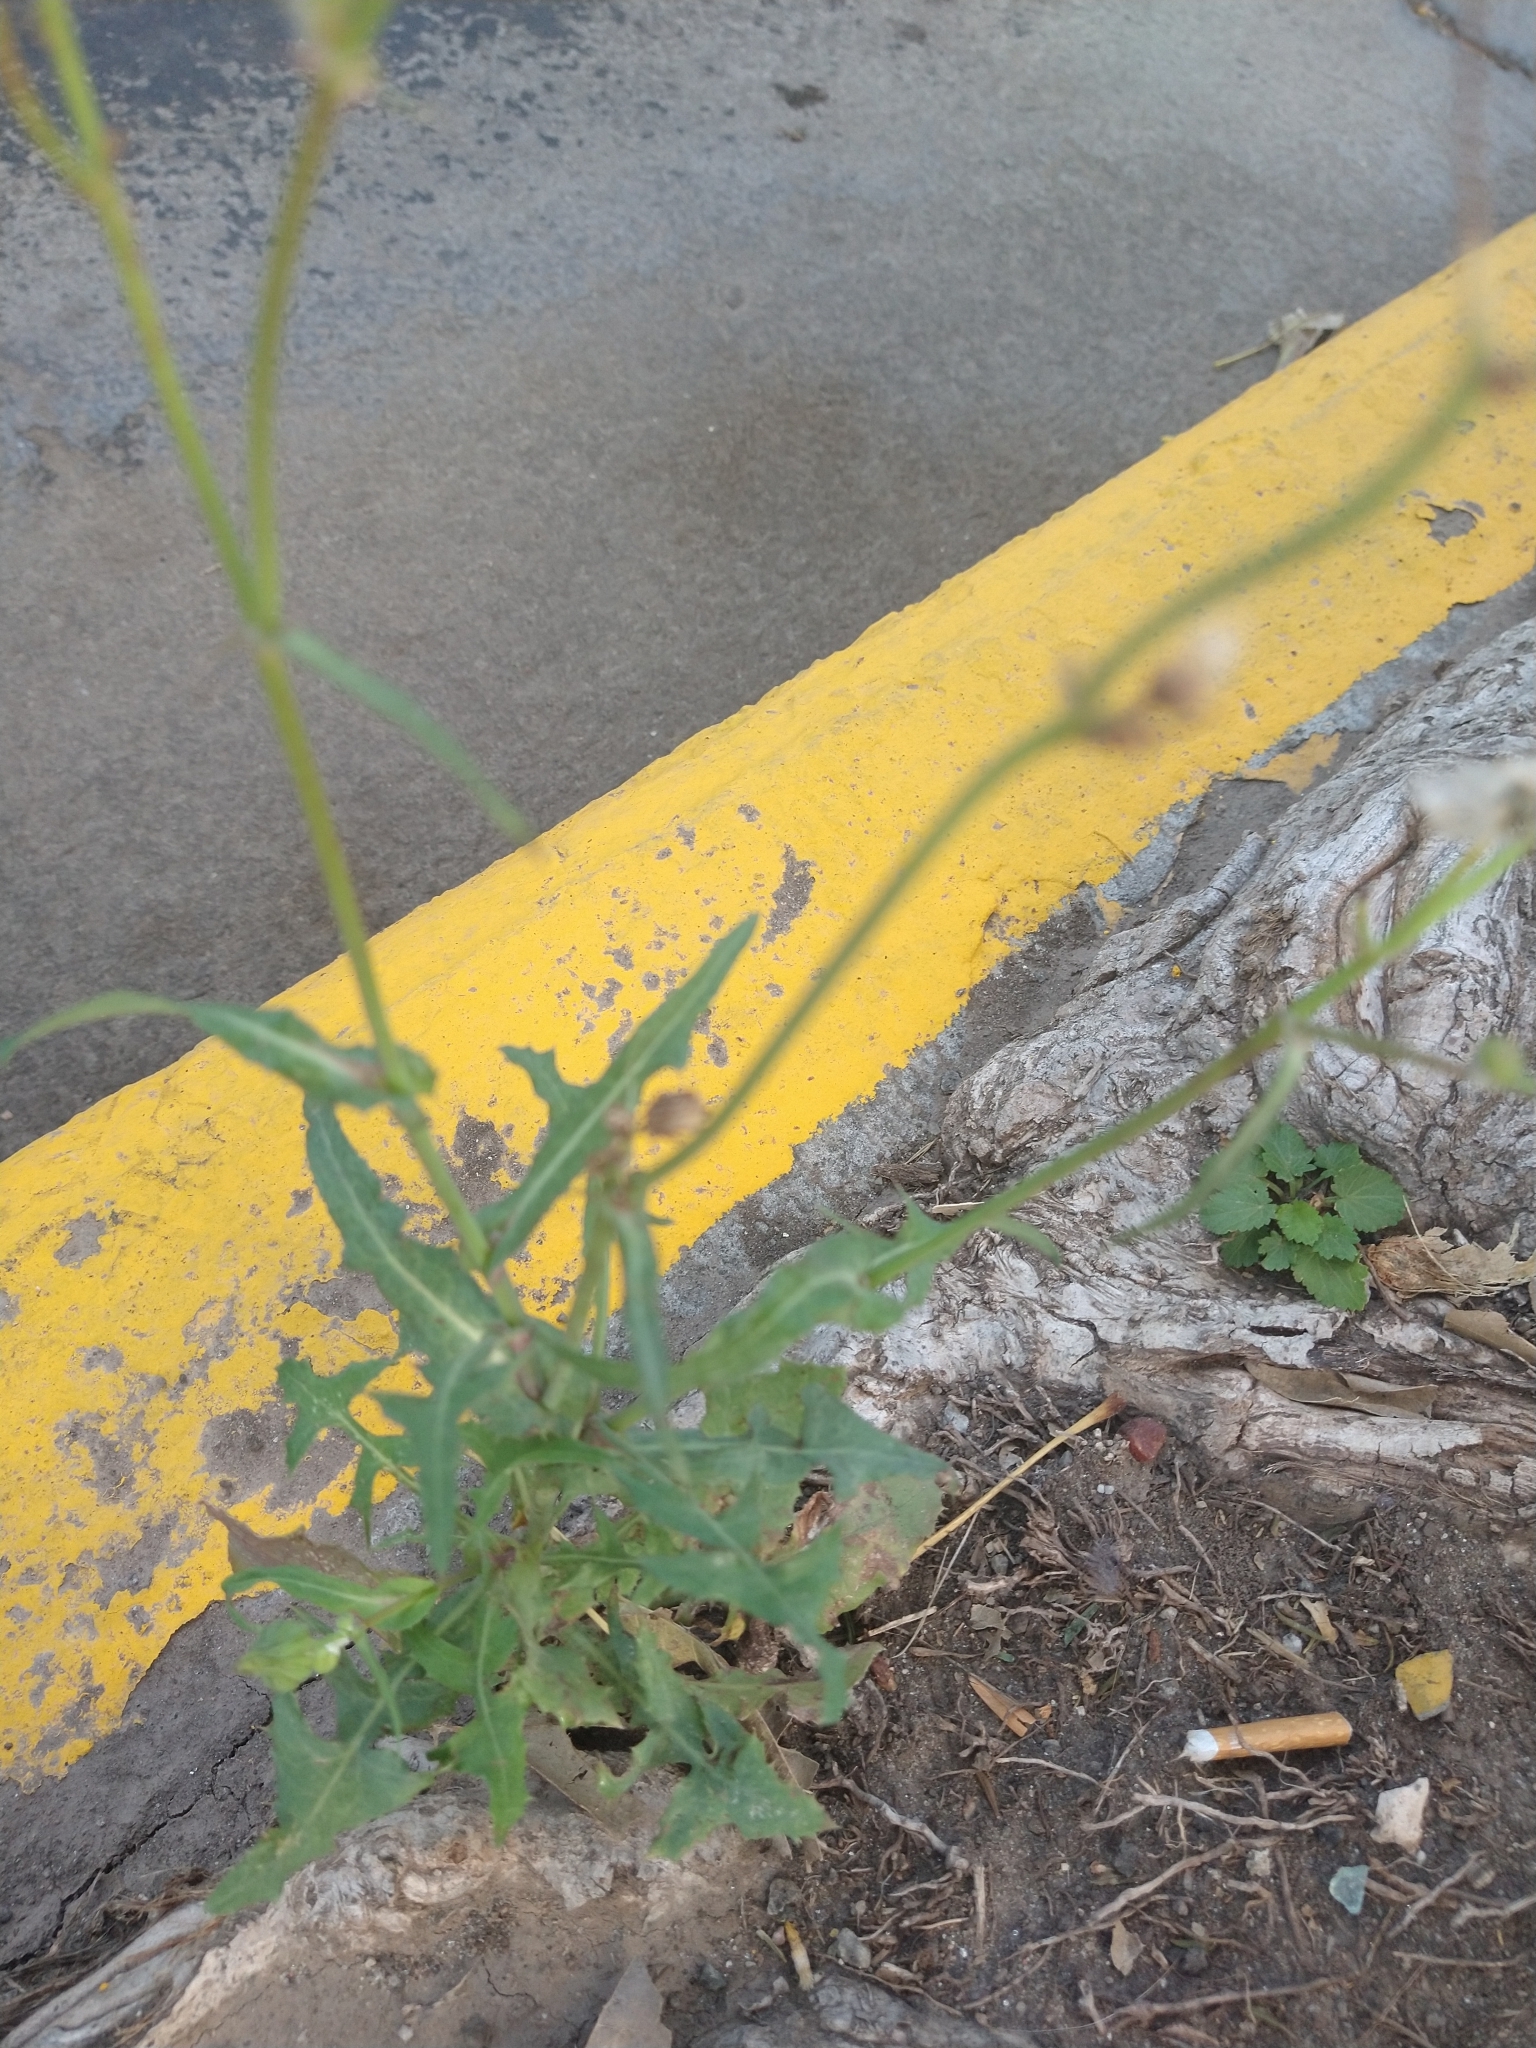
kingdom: Plantae
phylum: Tracheophyta
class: Magnoliopsida
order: Asterales
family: Asteraceae
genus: Sonchus
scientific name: Sonchus oleraceus
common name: Common sowthistle
